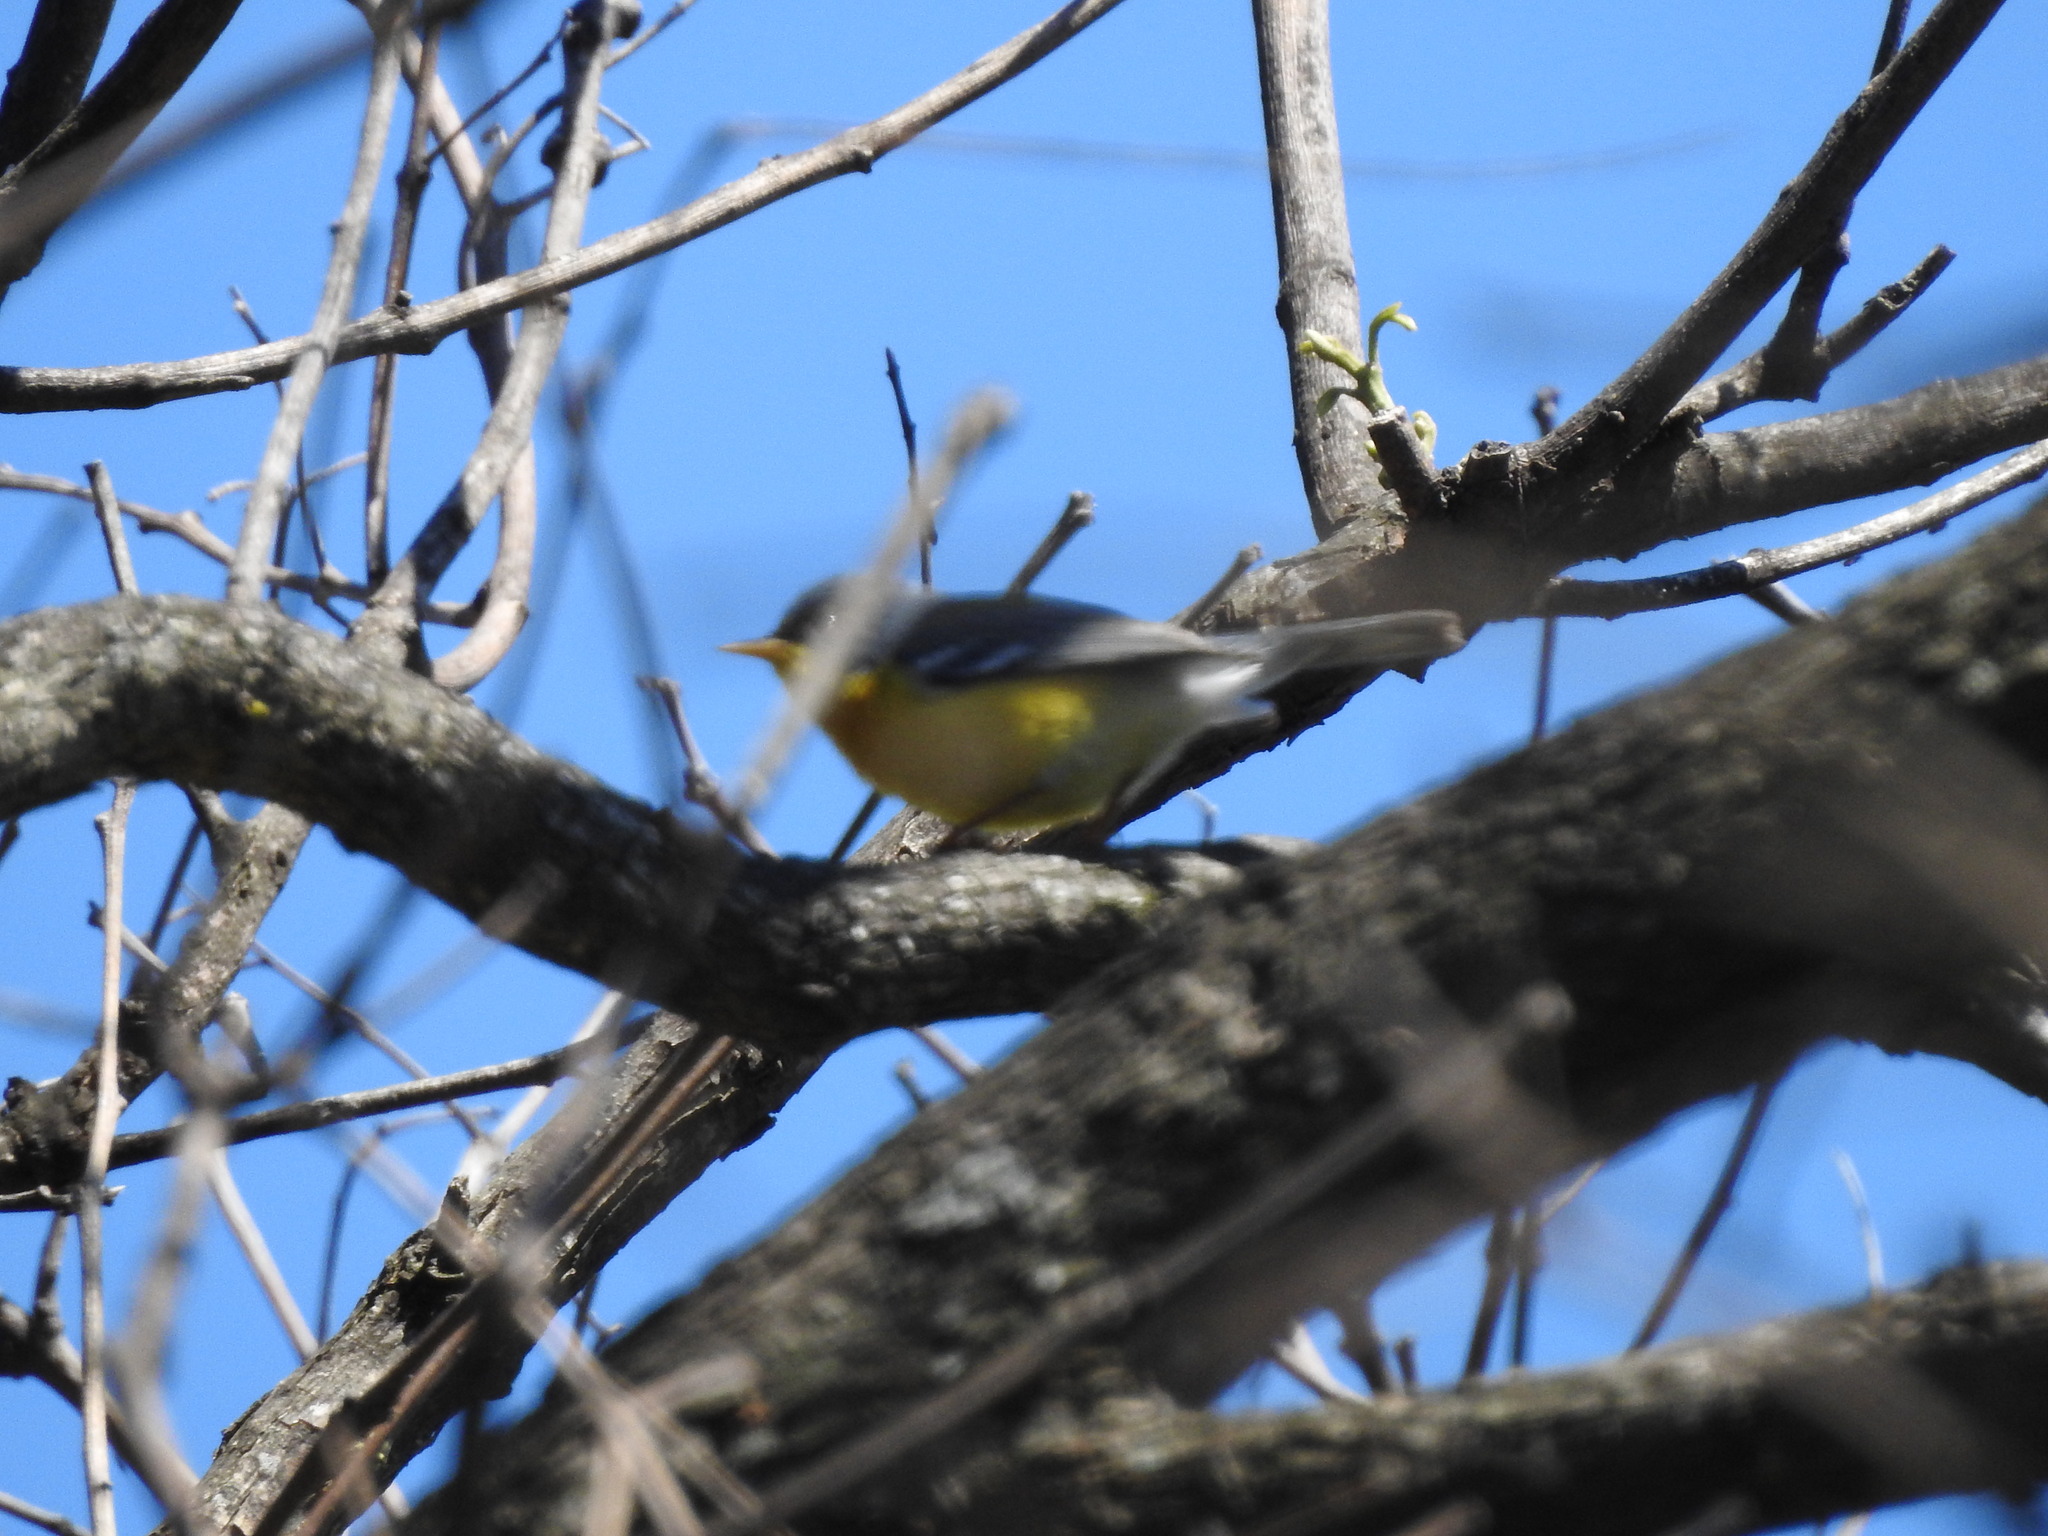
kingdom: Animalia
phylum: Chordata
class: Aves
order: Passeriformes
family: Parulidae
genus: Setophaga
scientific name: Setophaga pitiayumi
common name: Tropical parula
